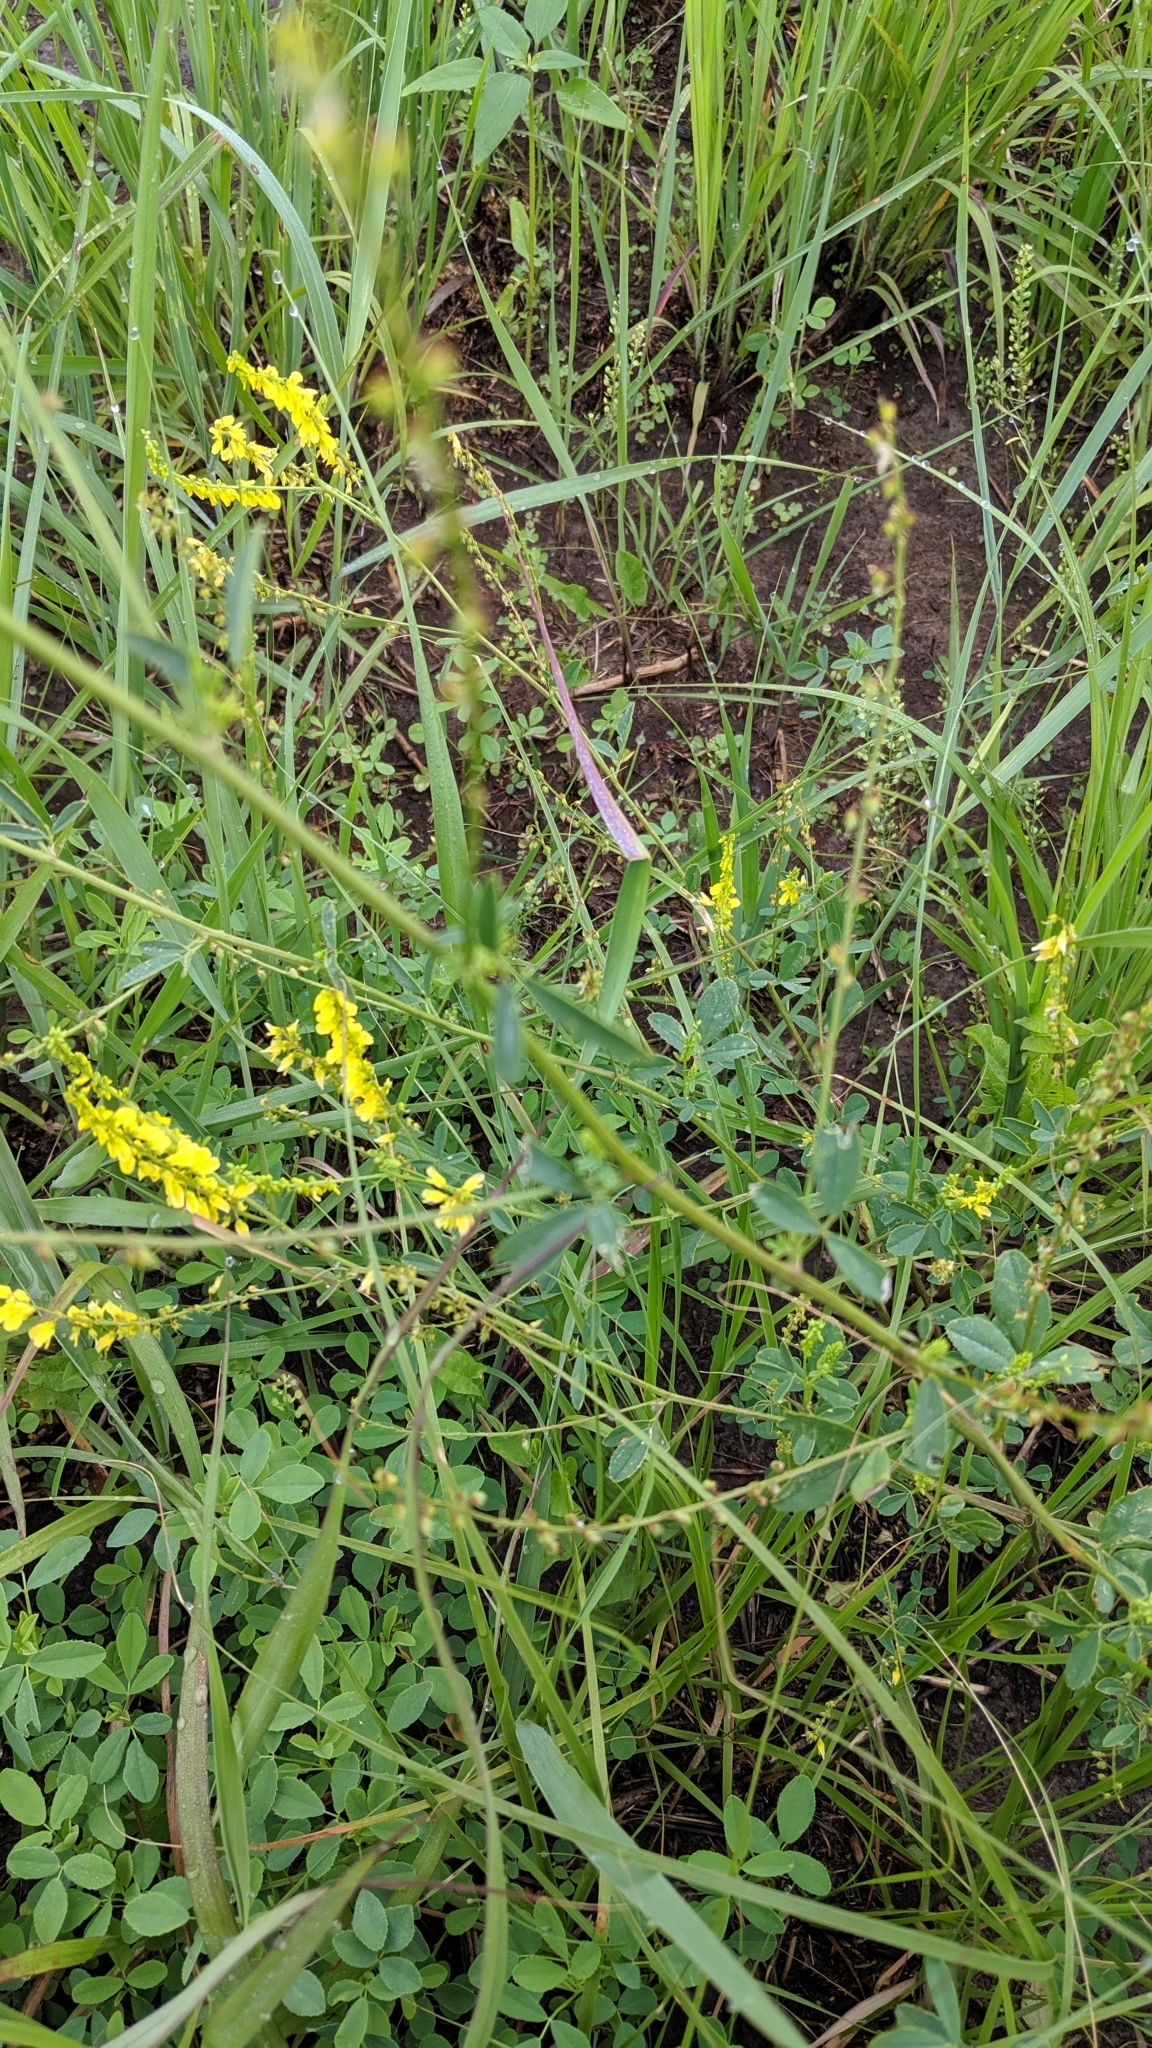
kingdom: Plantae
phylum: Tracheophyta
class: Magnoliopsida
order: Fabales
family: Fabaceae
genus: Melilotus
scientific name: Melilotus officinalis
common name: Sweetclover
